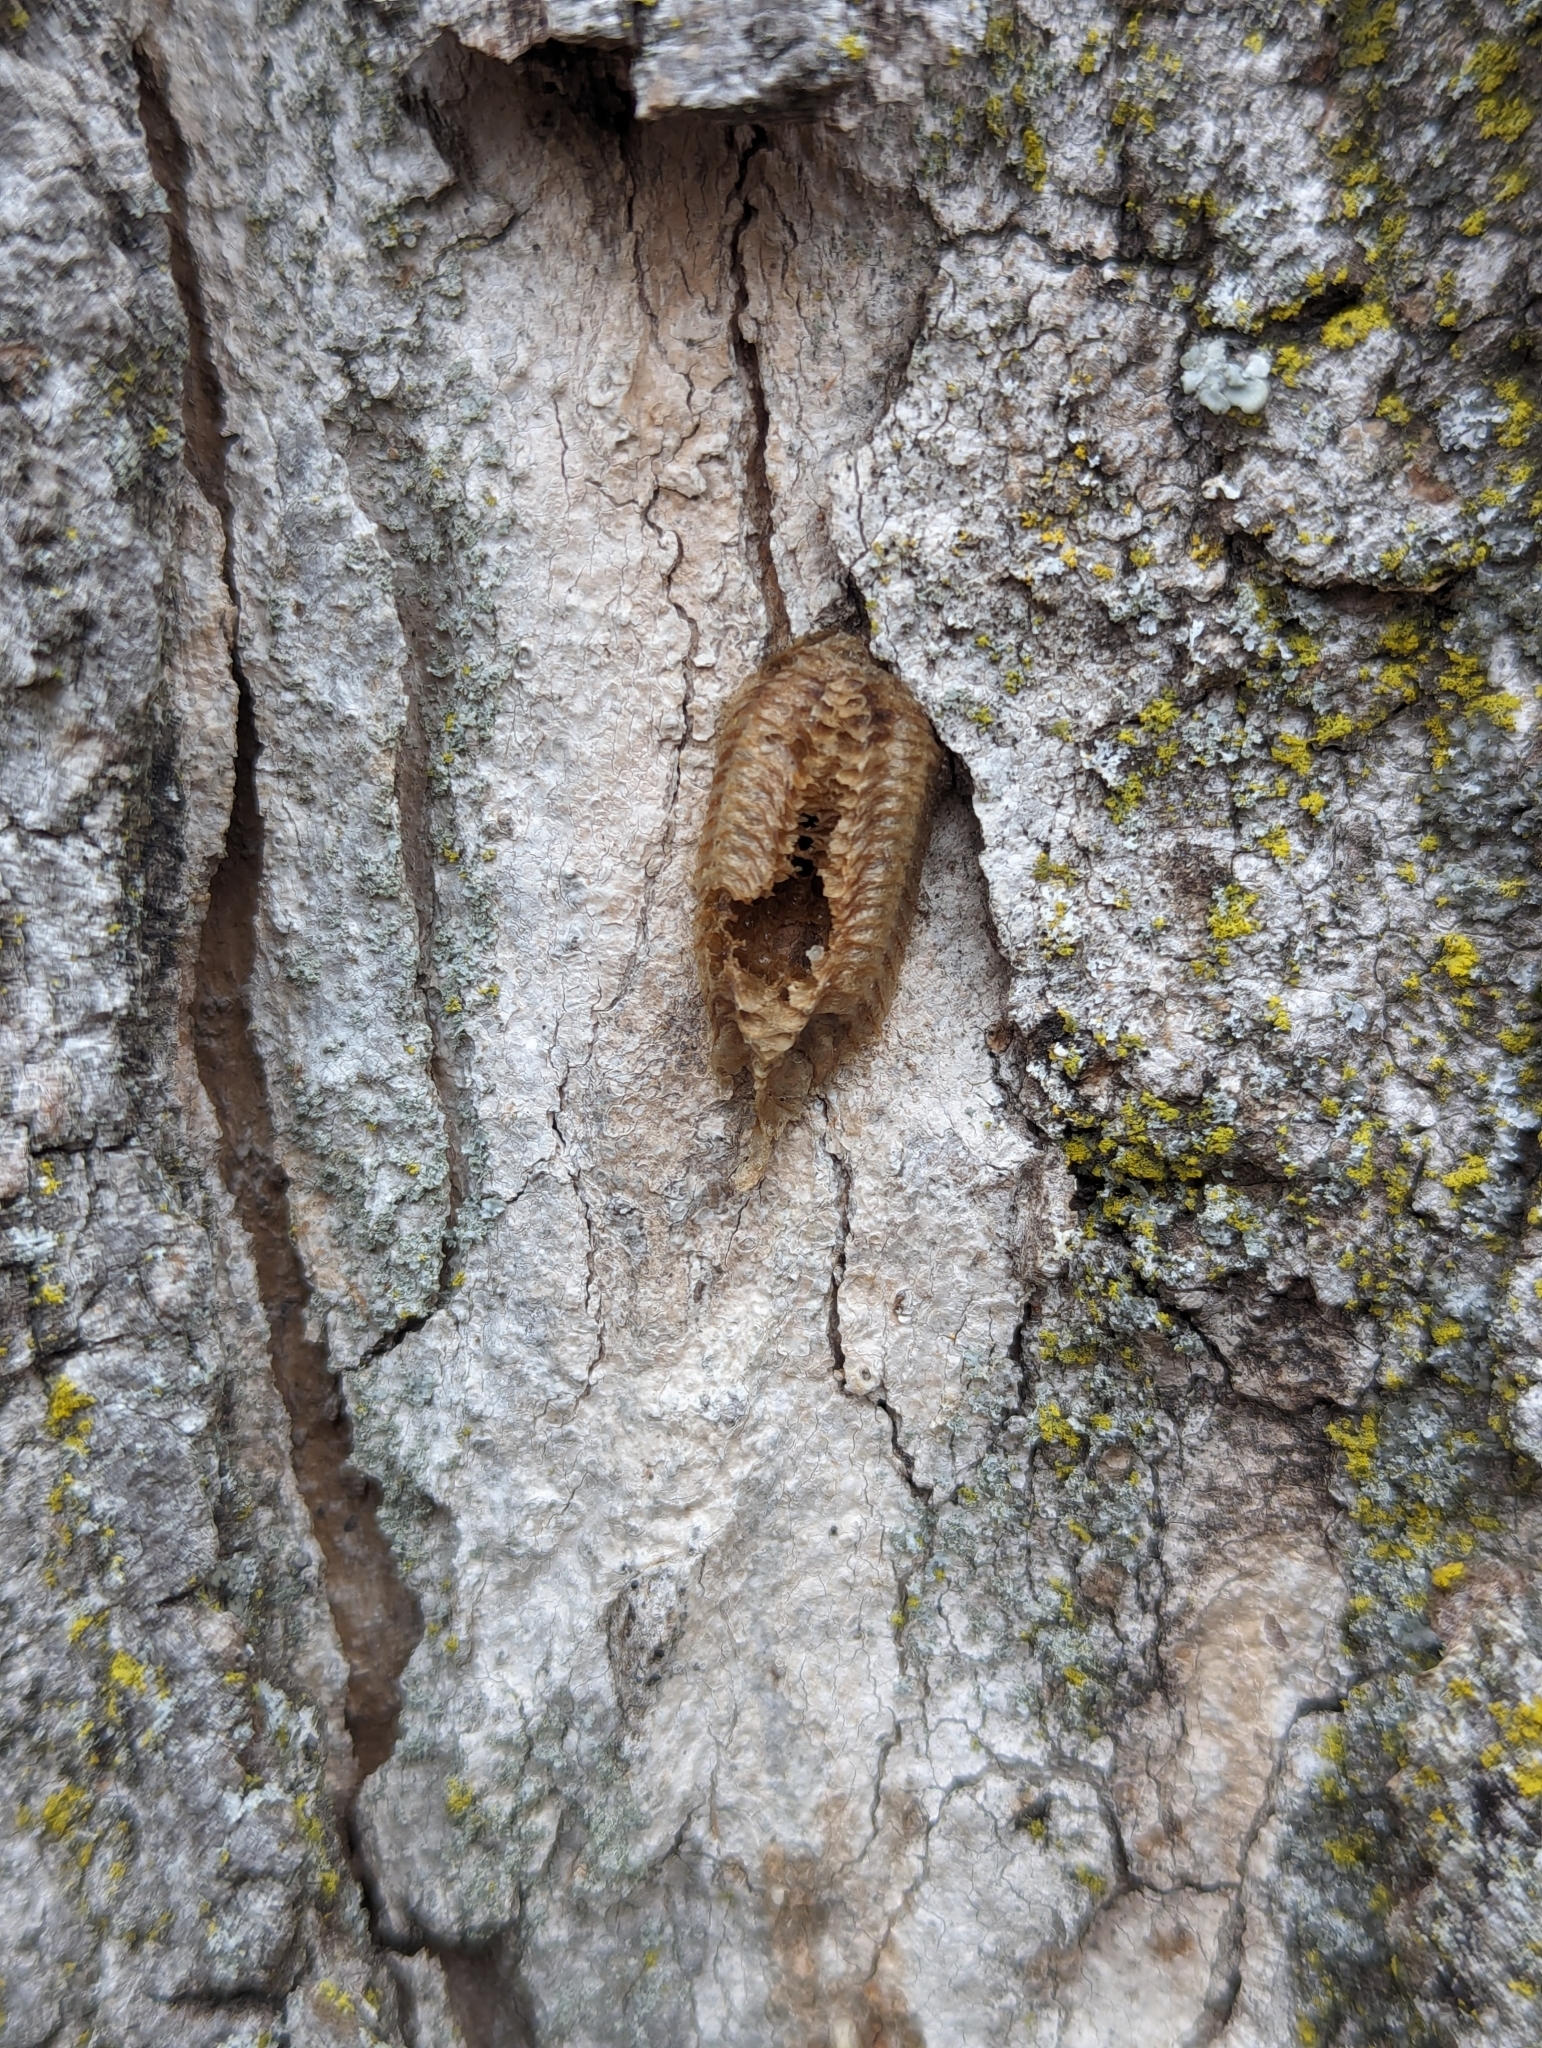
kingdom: Animalia
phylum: Arthropoda
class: Insecta
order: Mantodea
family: Mantidae
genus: Stagmomantis
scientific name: Stagmomantis carolina
